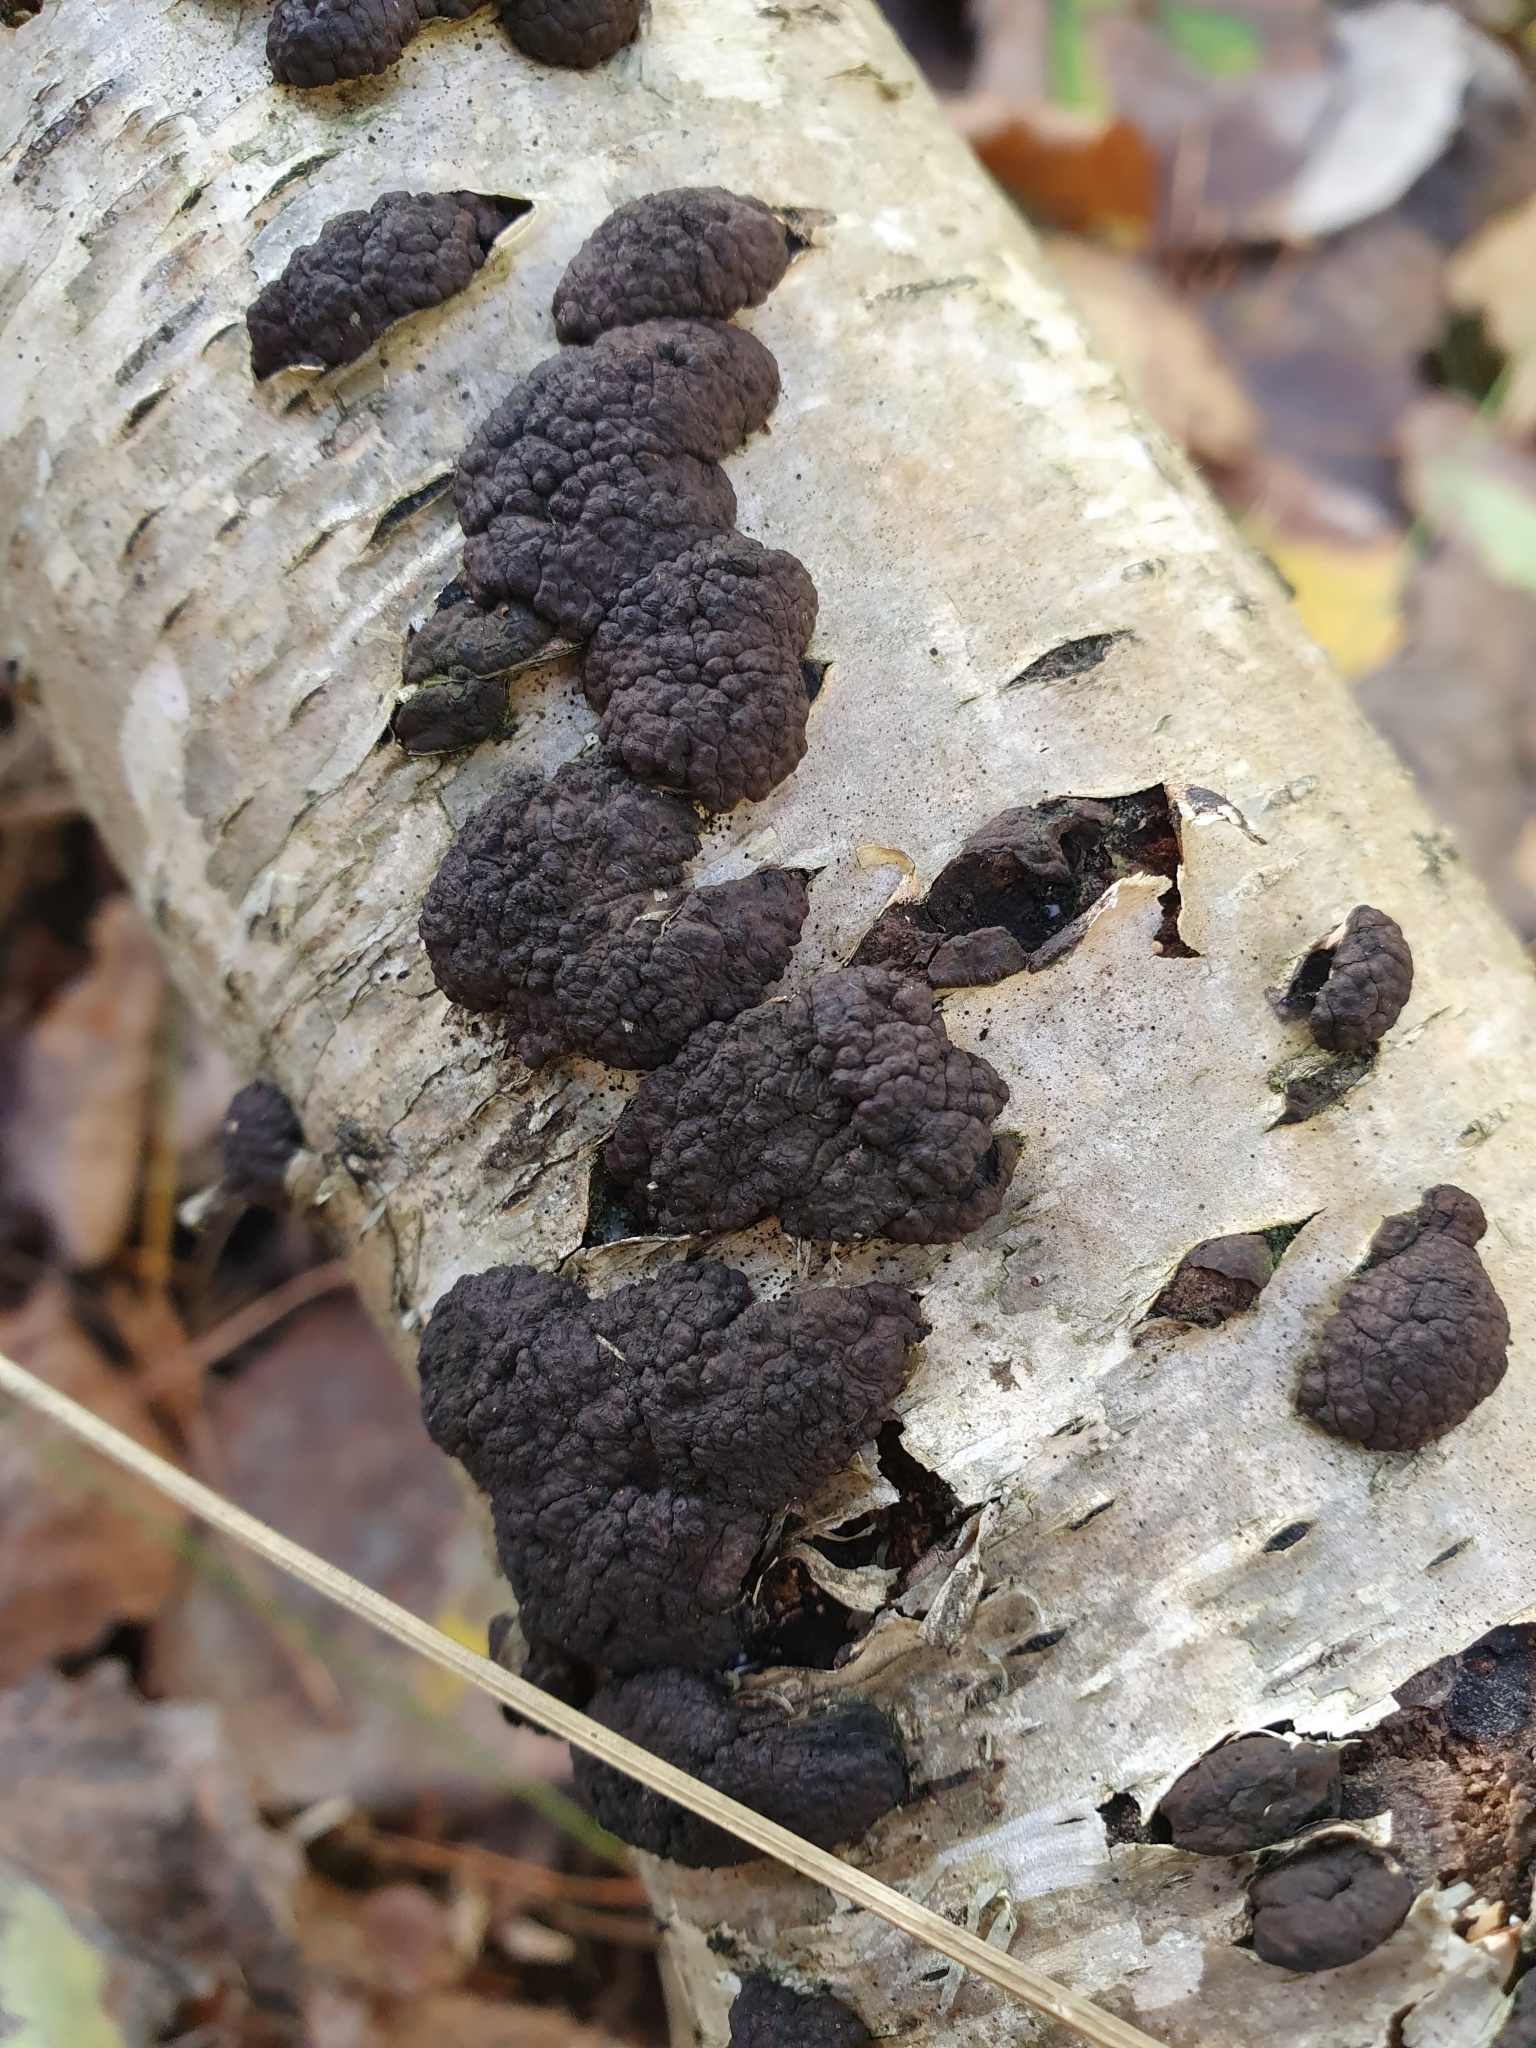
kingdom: Fungi
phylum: Ascomycota
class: Sordariomycetes
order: Xylariales
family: Hypoxylaceae
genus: Jackrogersella
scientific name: Jackrogersella multiformis
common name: Birch woodwart
